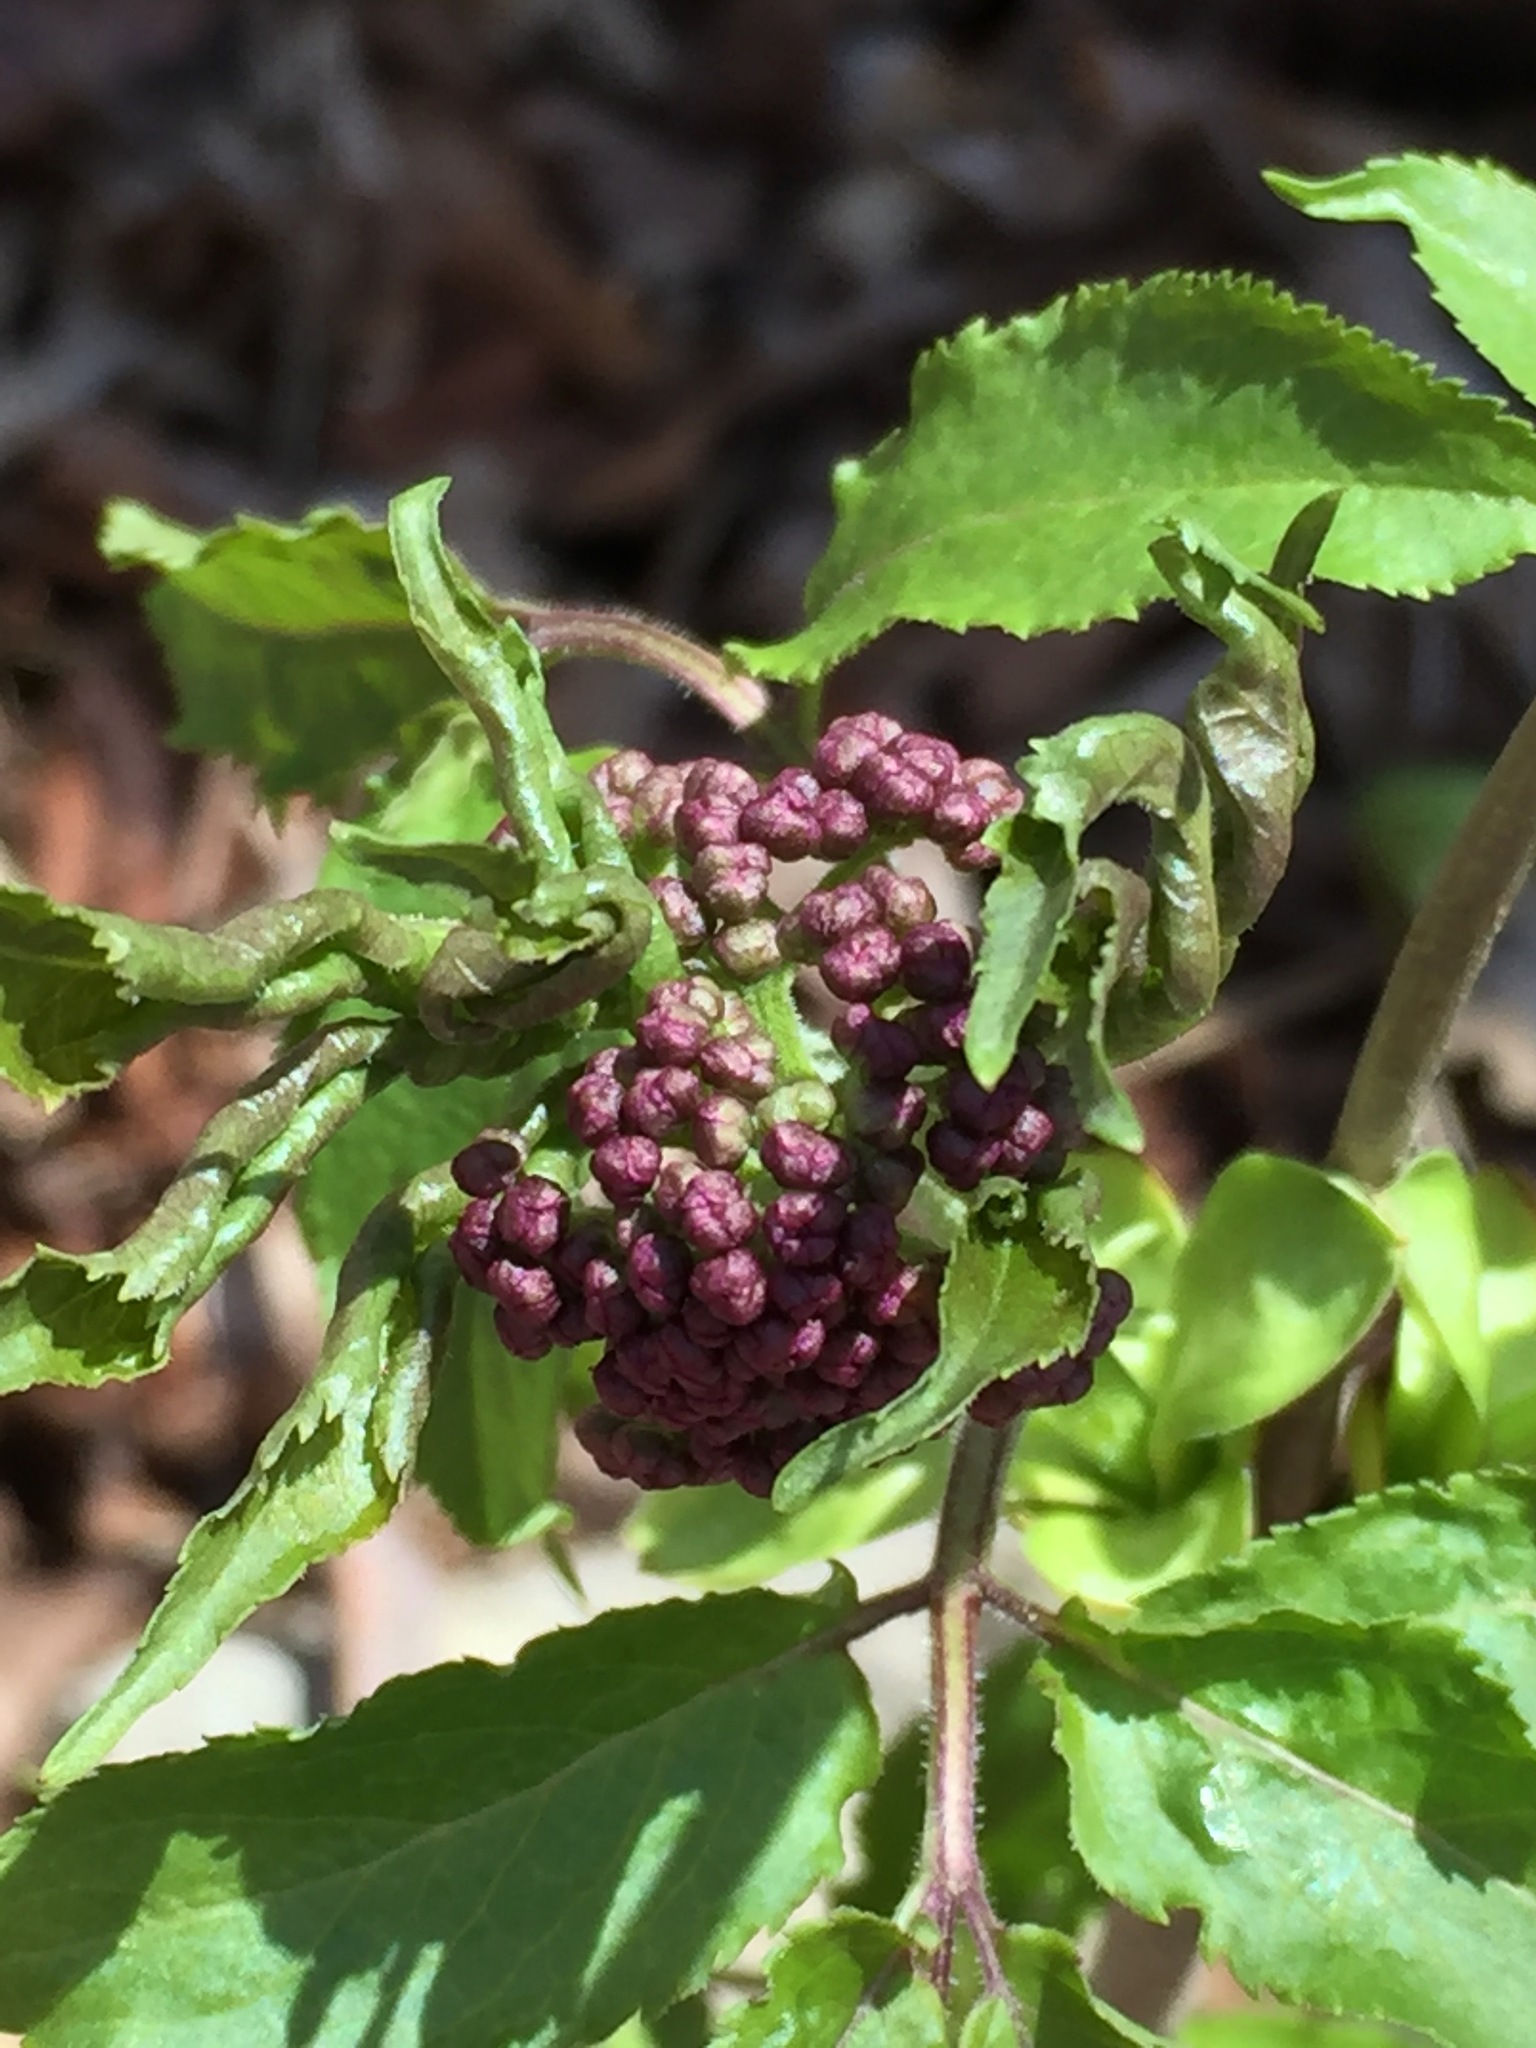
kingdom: Plantae
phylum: Tracheophyta
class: Magnoliopsida
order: Dipsacales
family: Viburnaceae
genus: Sambucus
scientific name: Sambucus racemosa
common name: Red-berried elder
